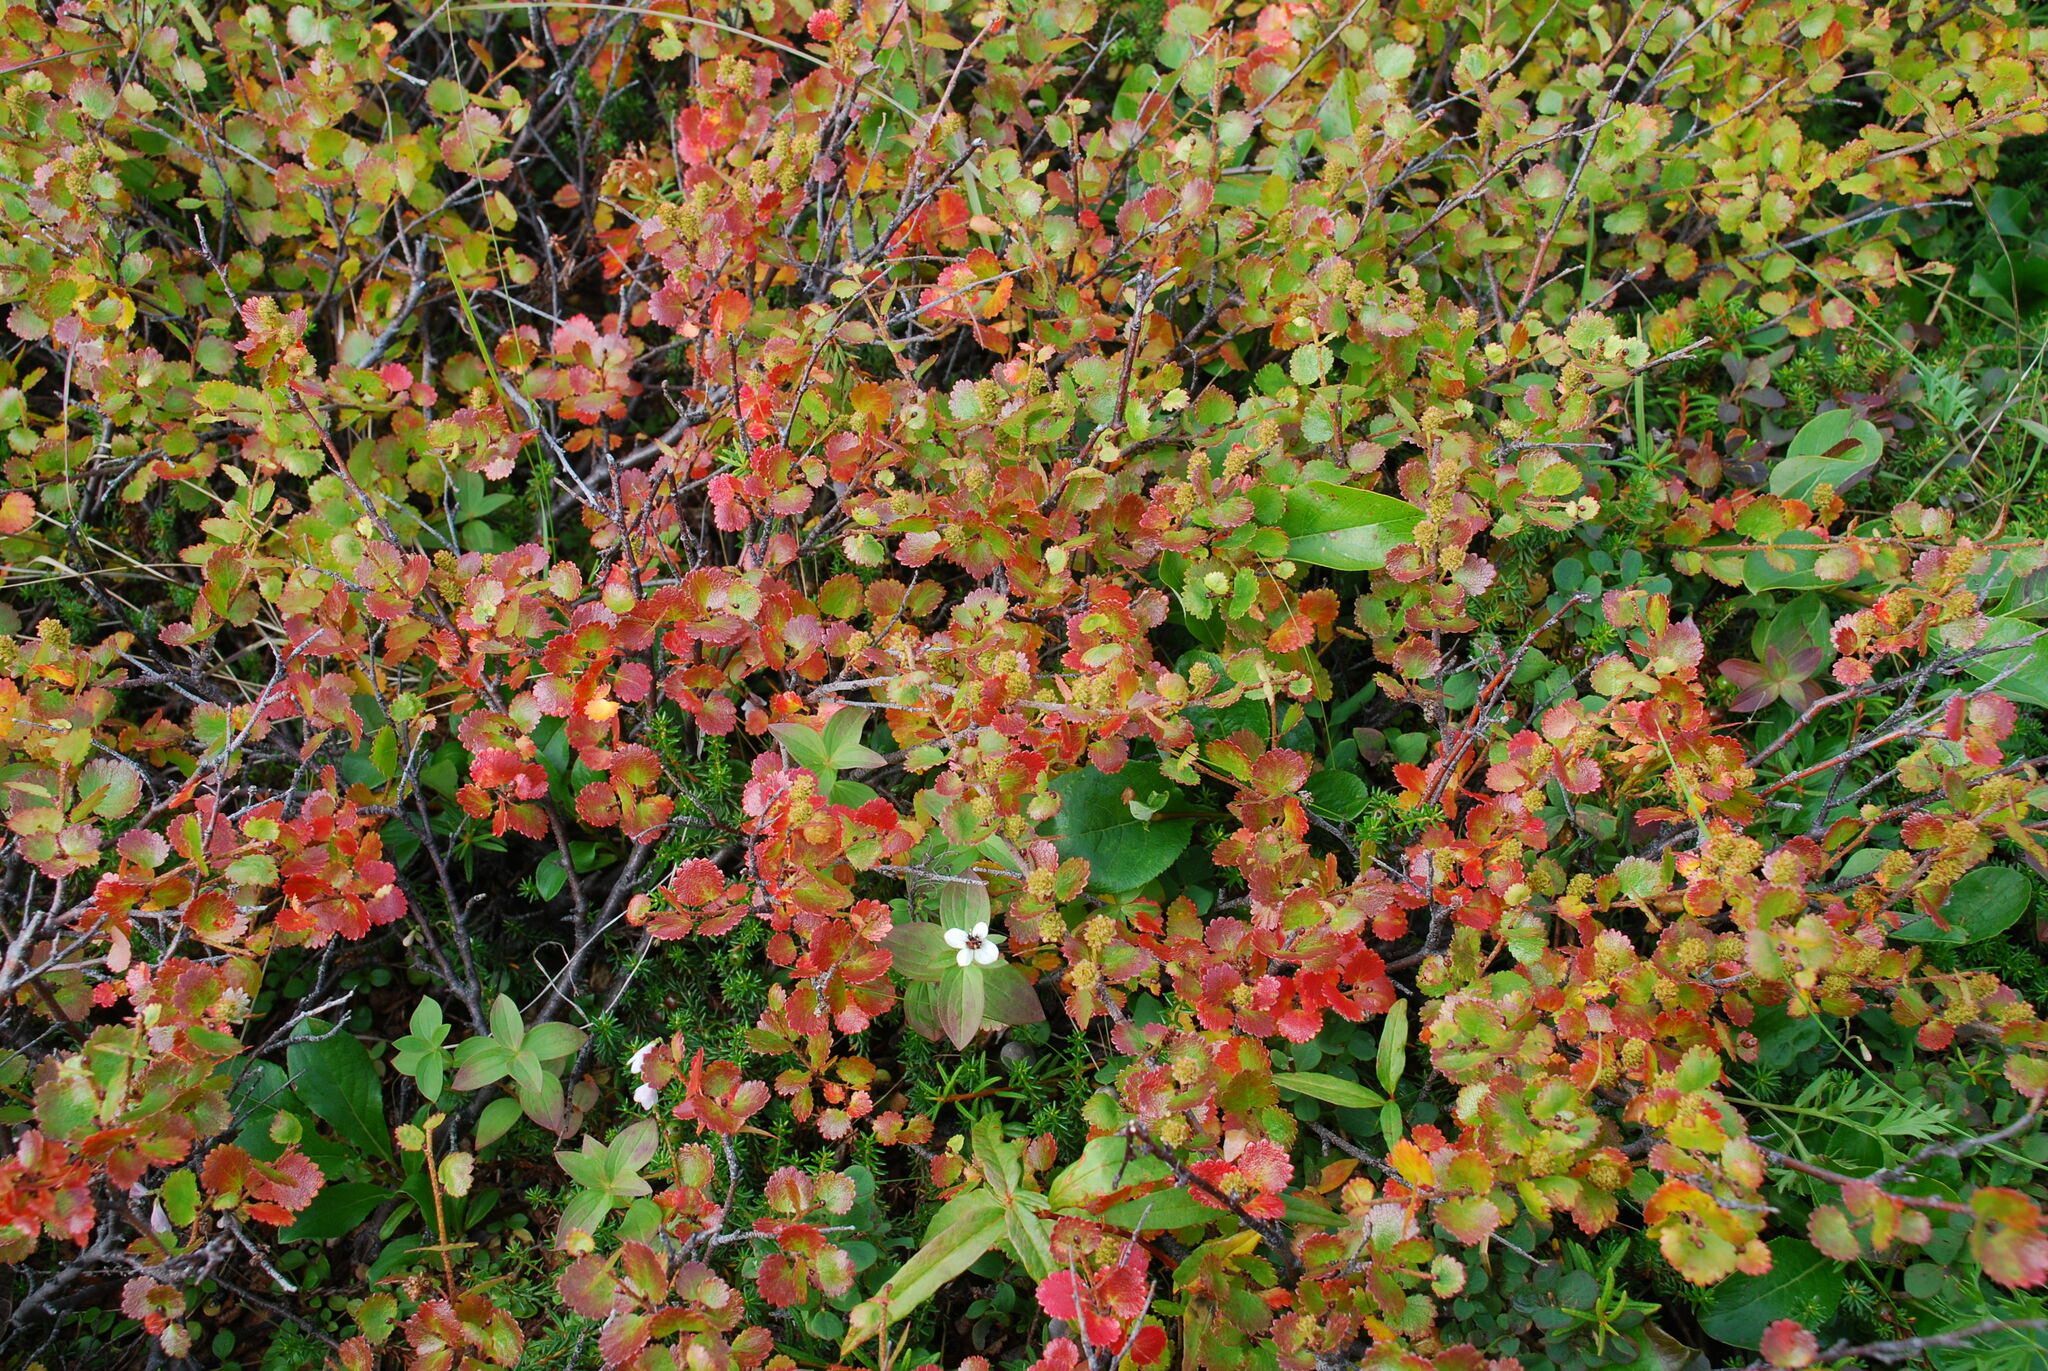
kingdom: Plantae
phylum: Tracheophyta
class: Magnoliopsida
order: Fagales
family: Betulaceae
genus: Betula
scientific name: Betula glandulosa
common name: Dwarf birch
